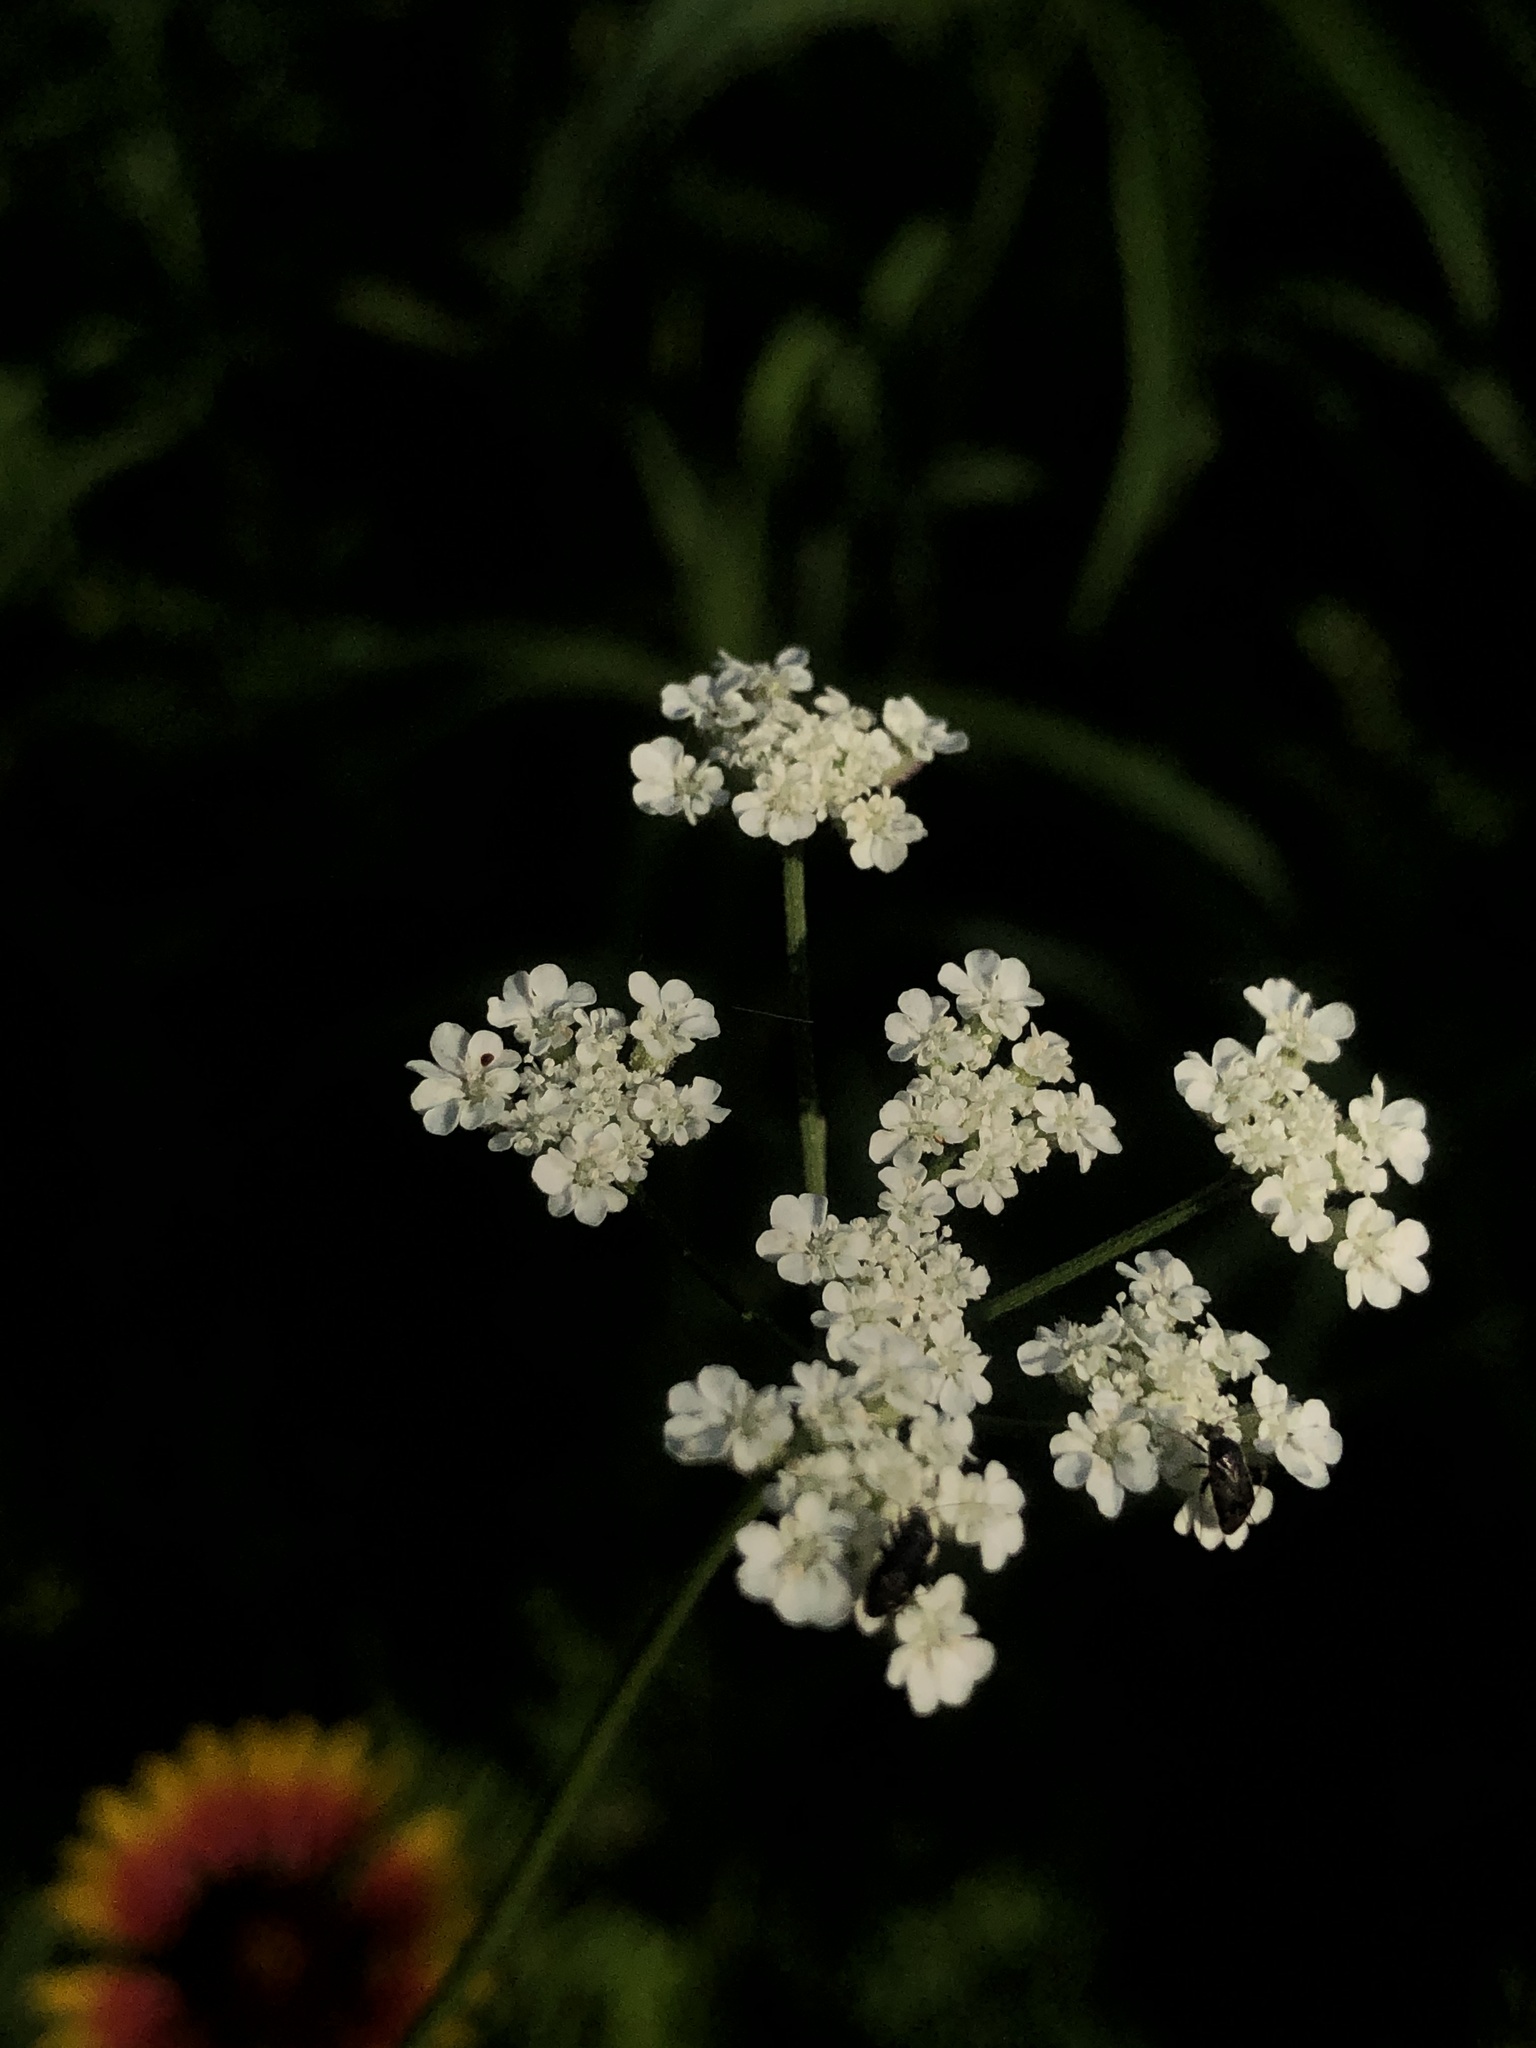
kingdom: Plantae
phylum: Tracheophyta
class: Magnoliopsida
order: Apiales
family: Apiaceae
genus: Torilis
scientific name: Torilis arvensis
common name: Spreading hedge-parsley
